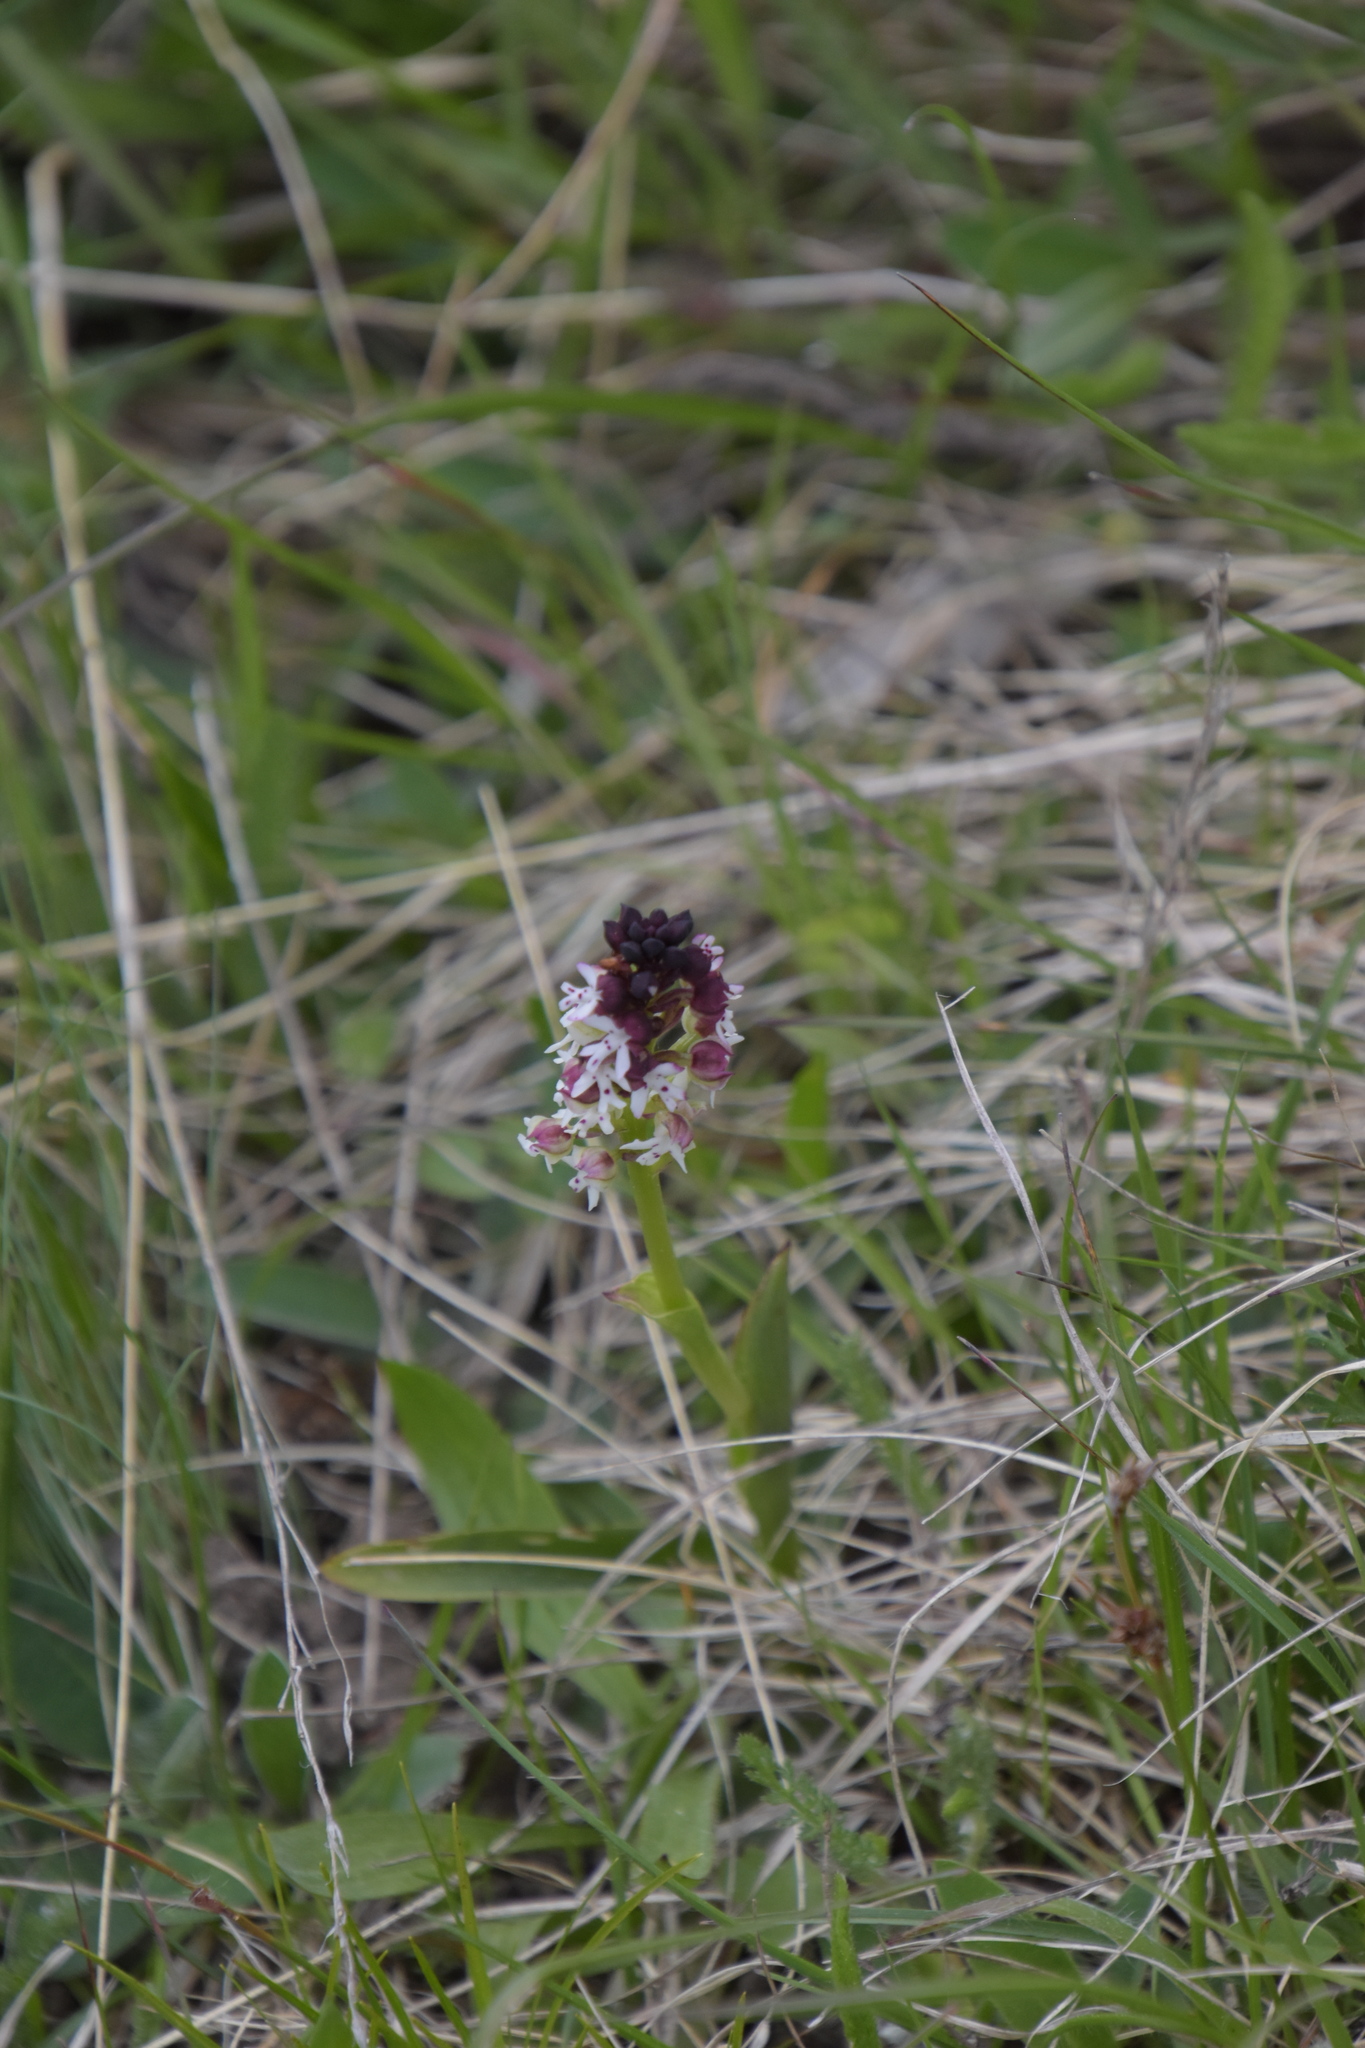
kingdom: Plantae
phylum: Tracheophyta
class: Liliopsida
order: Asparagales
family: Orchidaceae
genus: Neotinea
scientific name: Neotinea ustulata
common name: Burnt orchid
